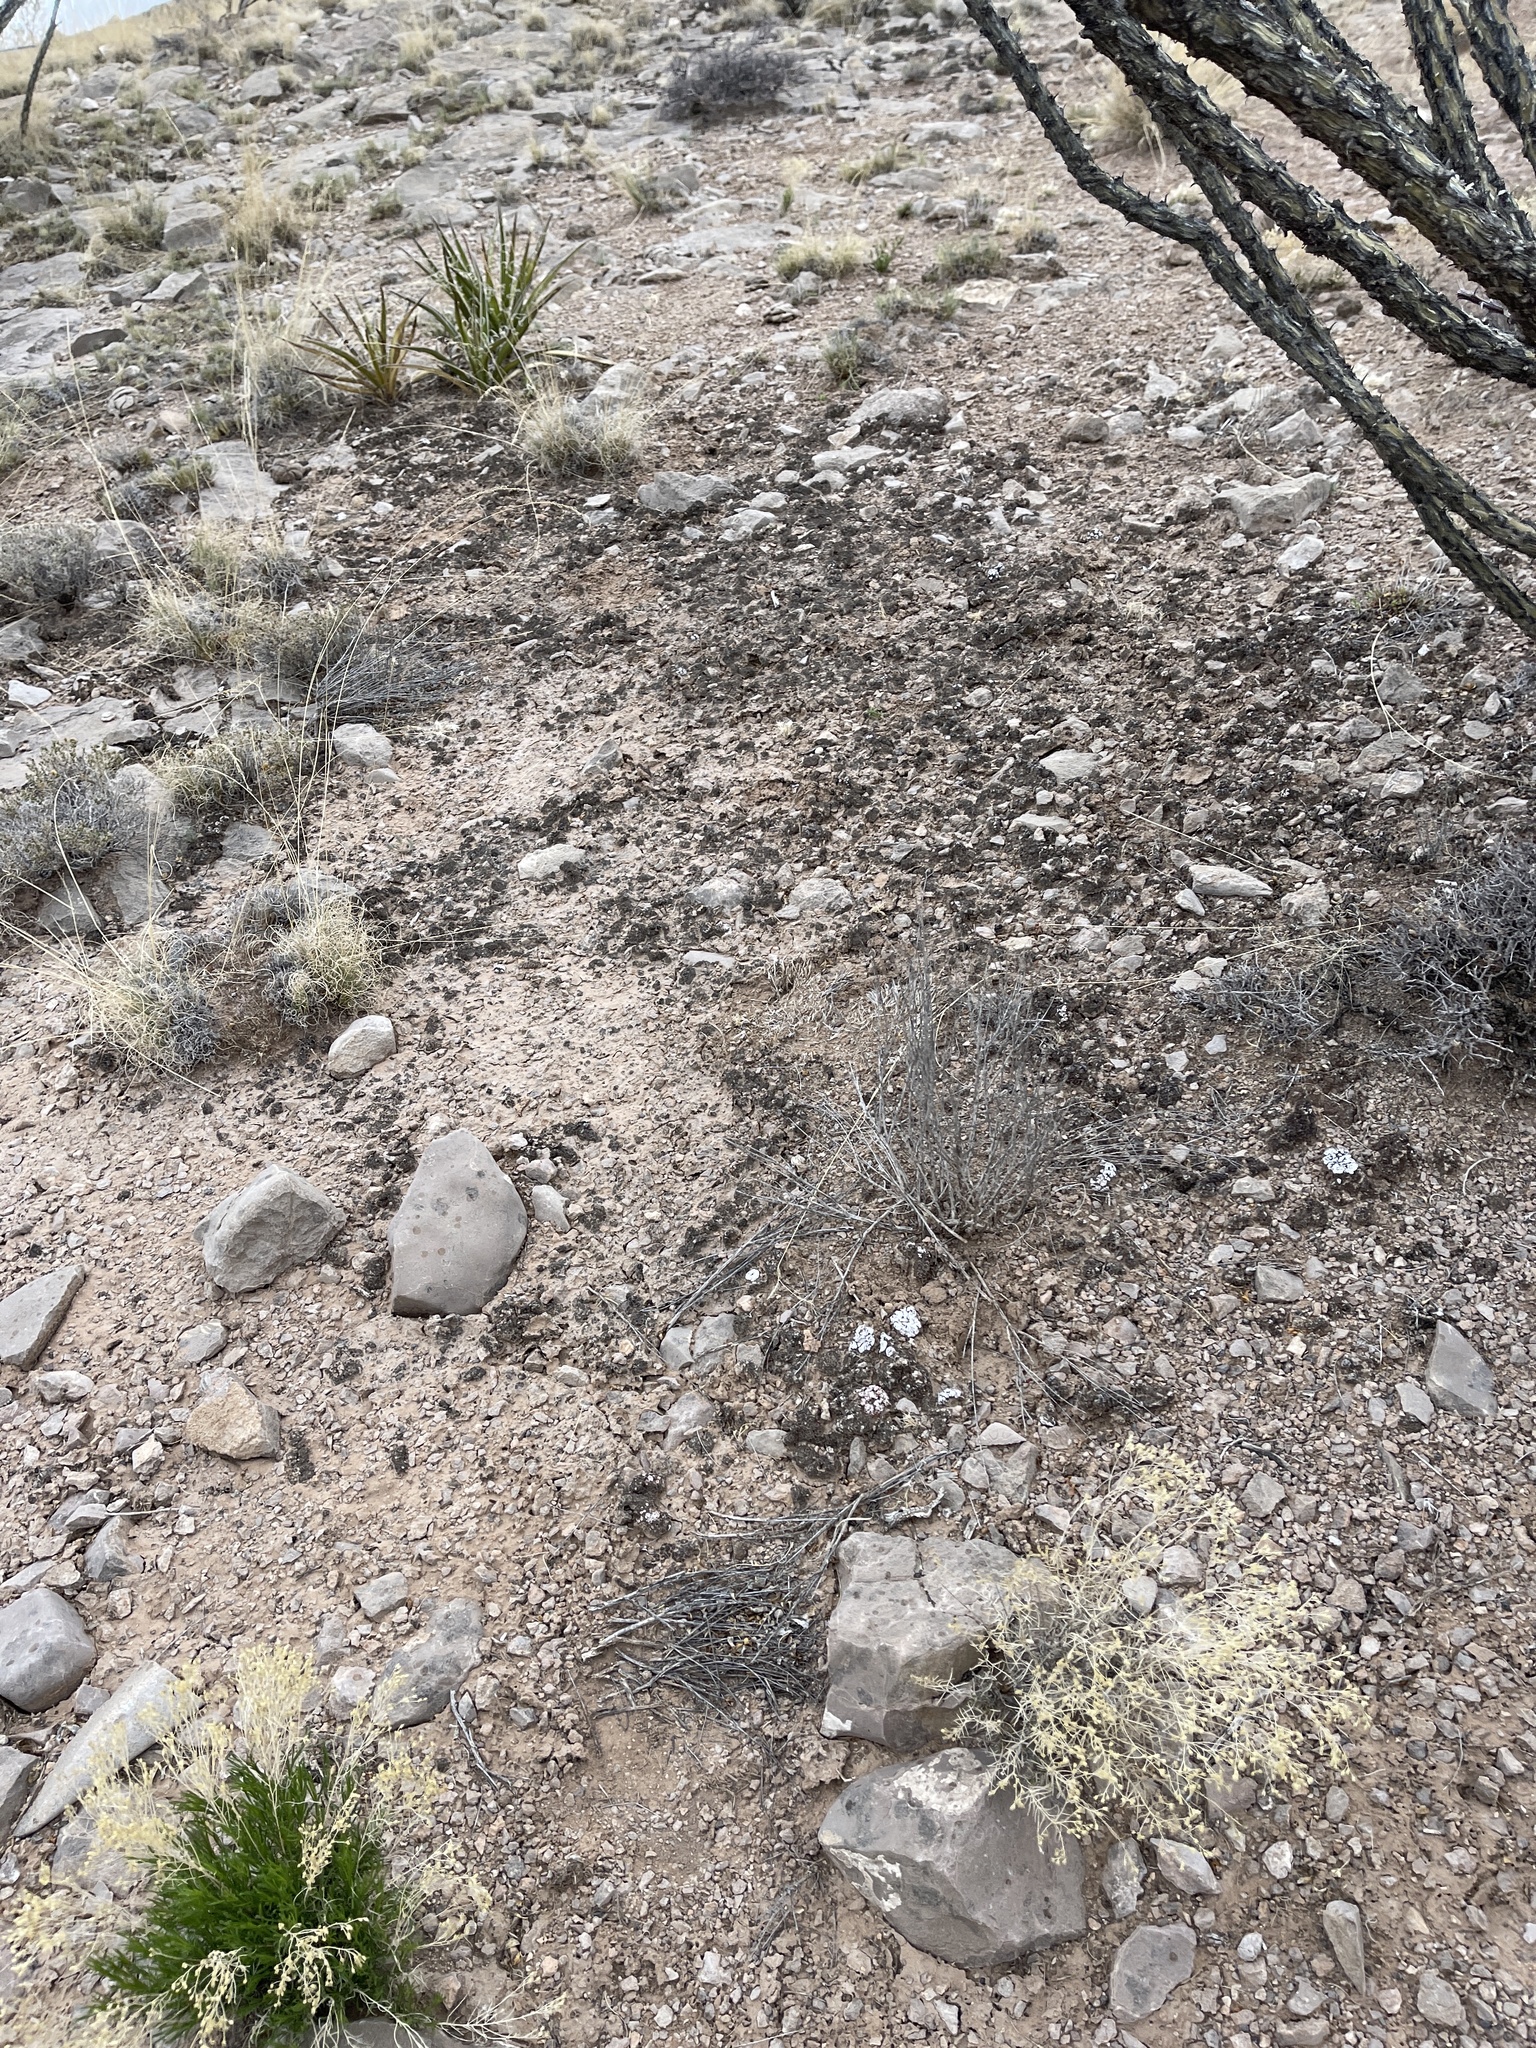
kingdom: Fungi
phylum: Ascomycota
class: Lecanoromycetes
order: Lecanorales
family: Psoraceae
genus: Psora
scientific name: Psora crenata
